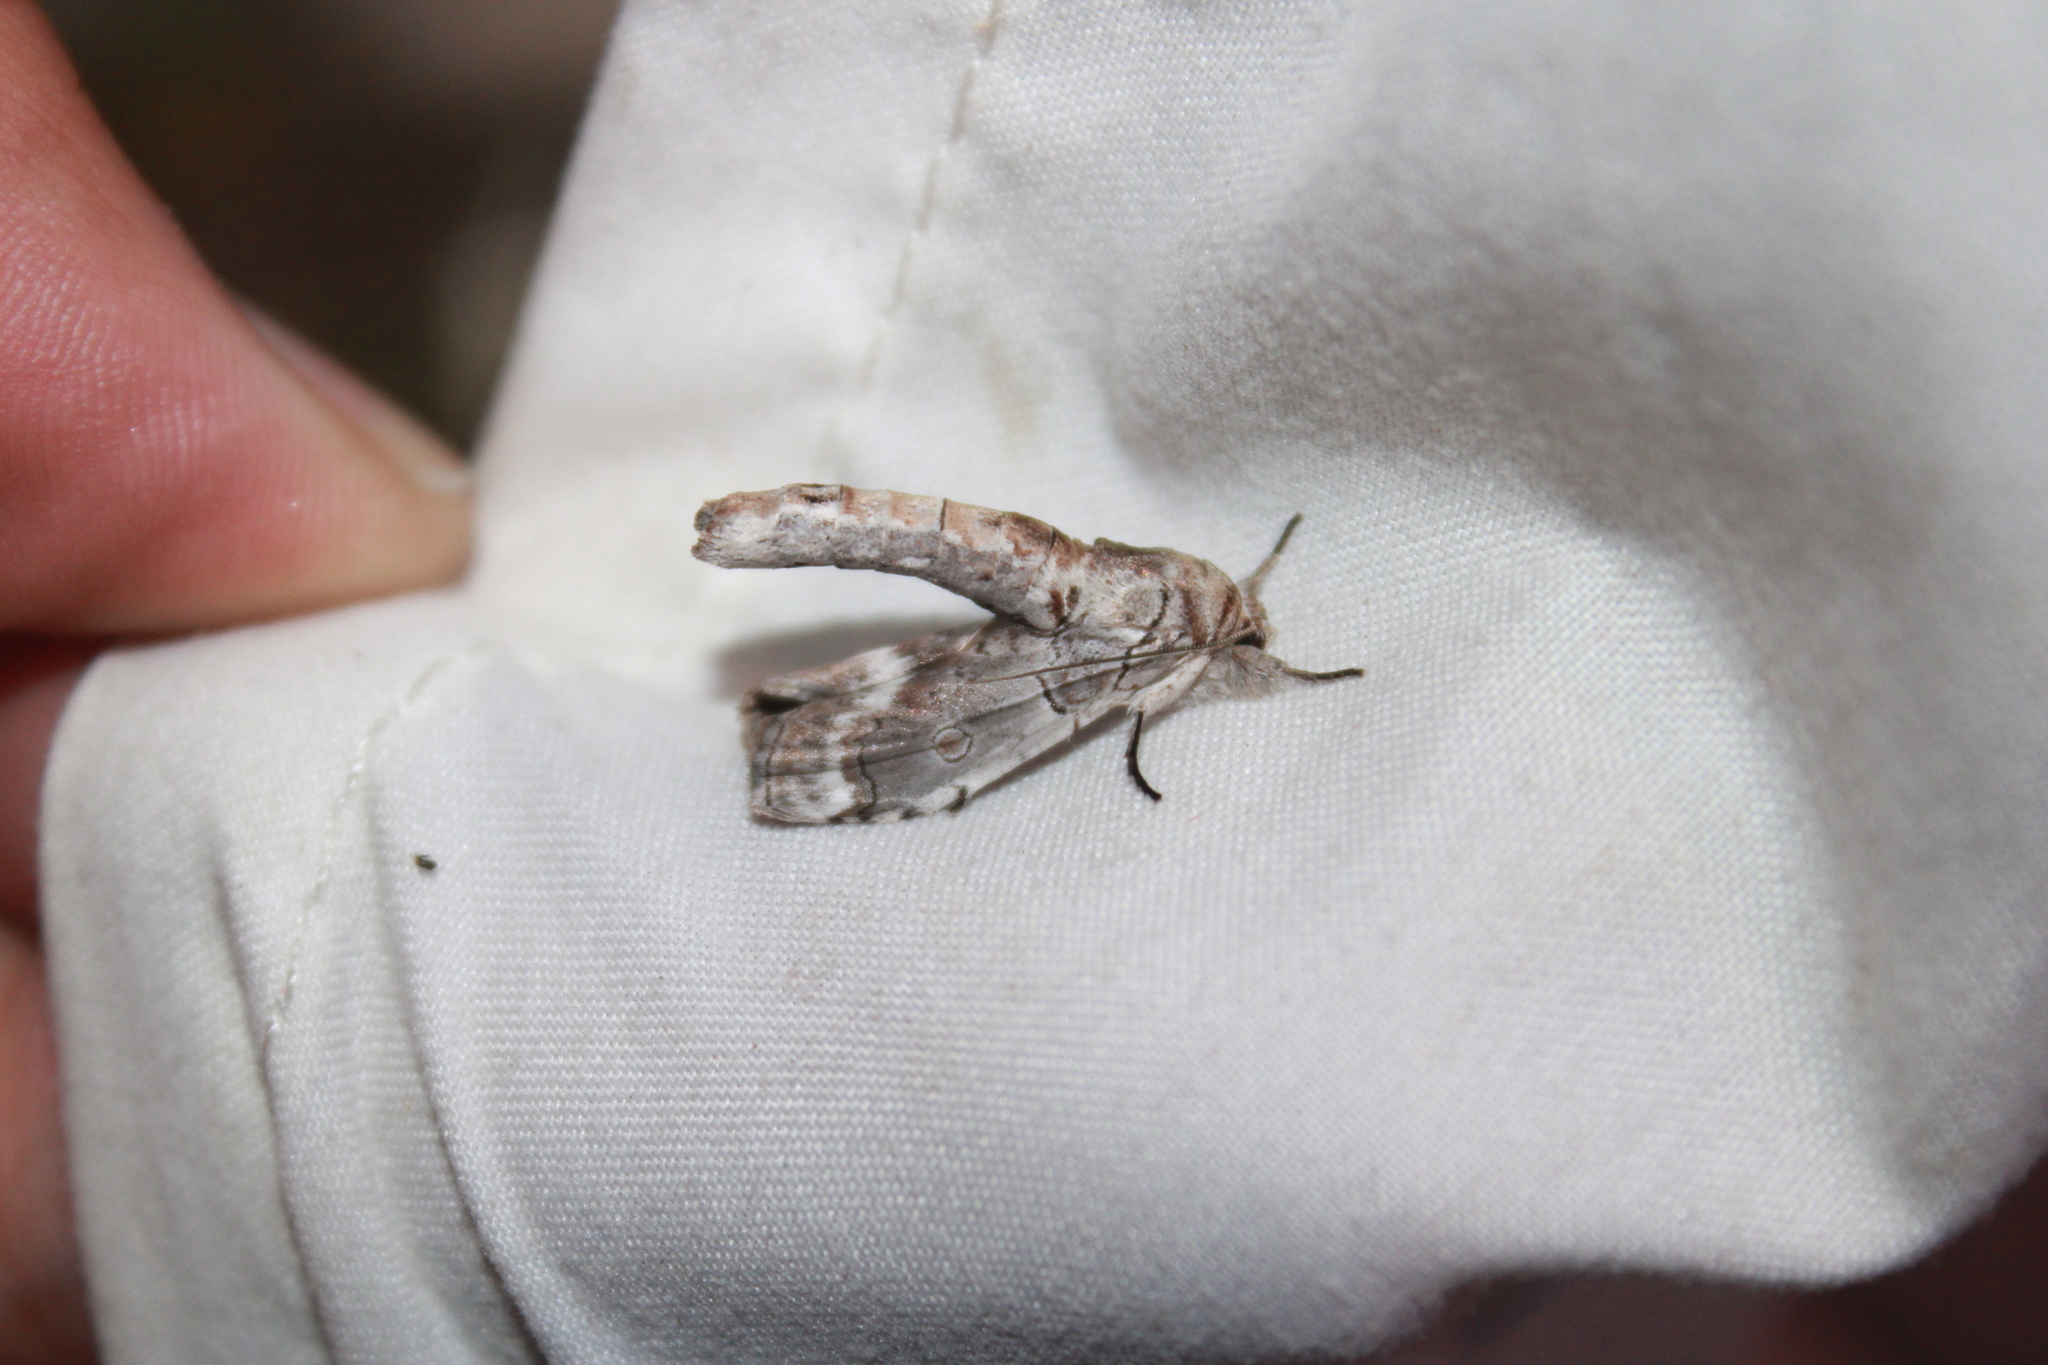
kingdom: Animalia
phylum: Arthropoda
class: Insecta
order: Lepidoptera
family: Nolidae
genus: Motya
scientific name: Motya
